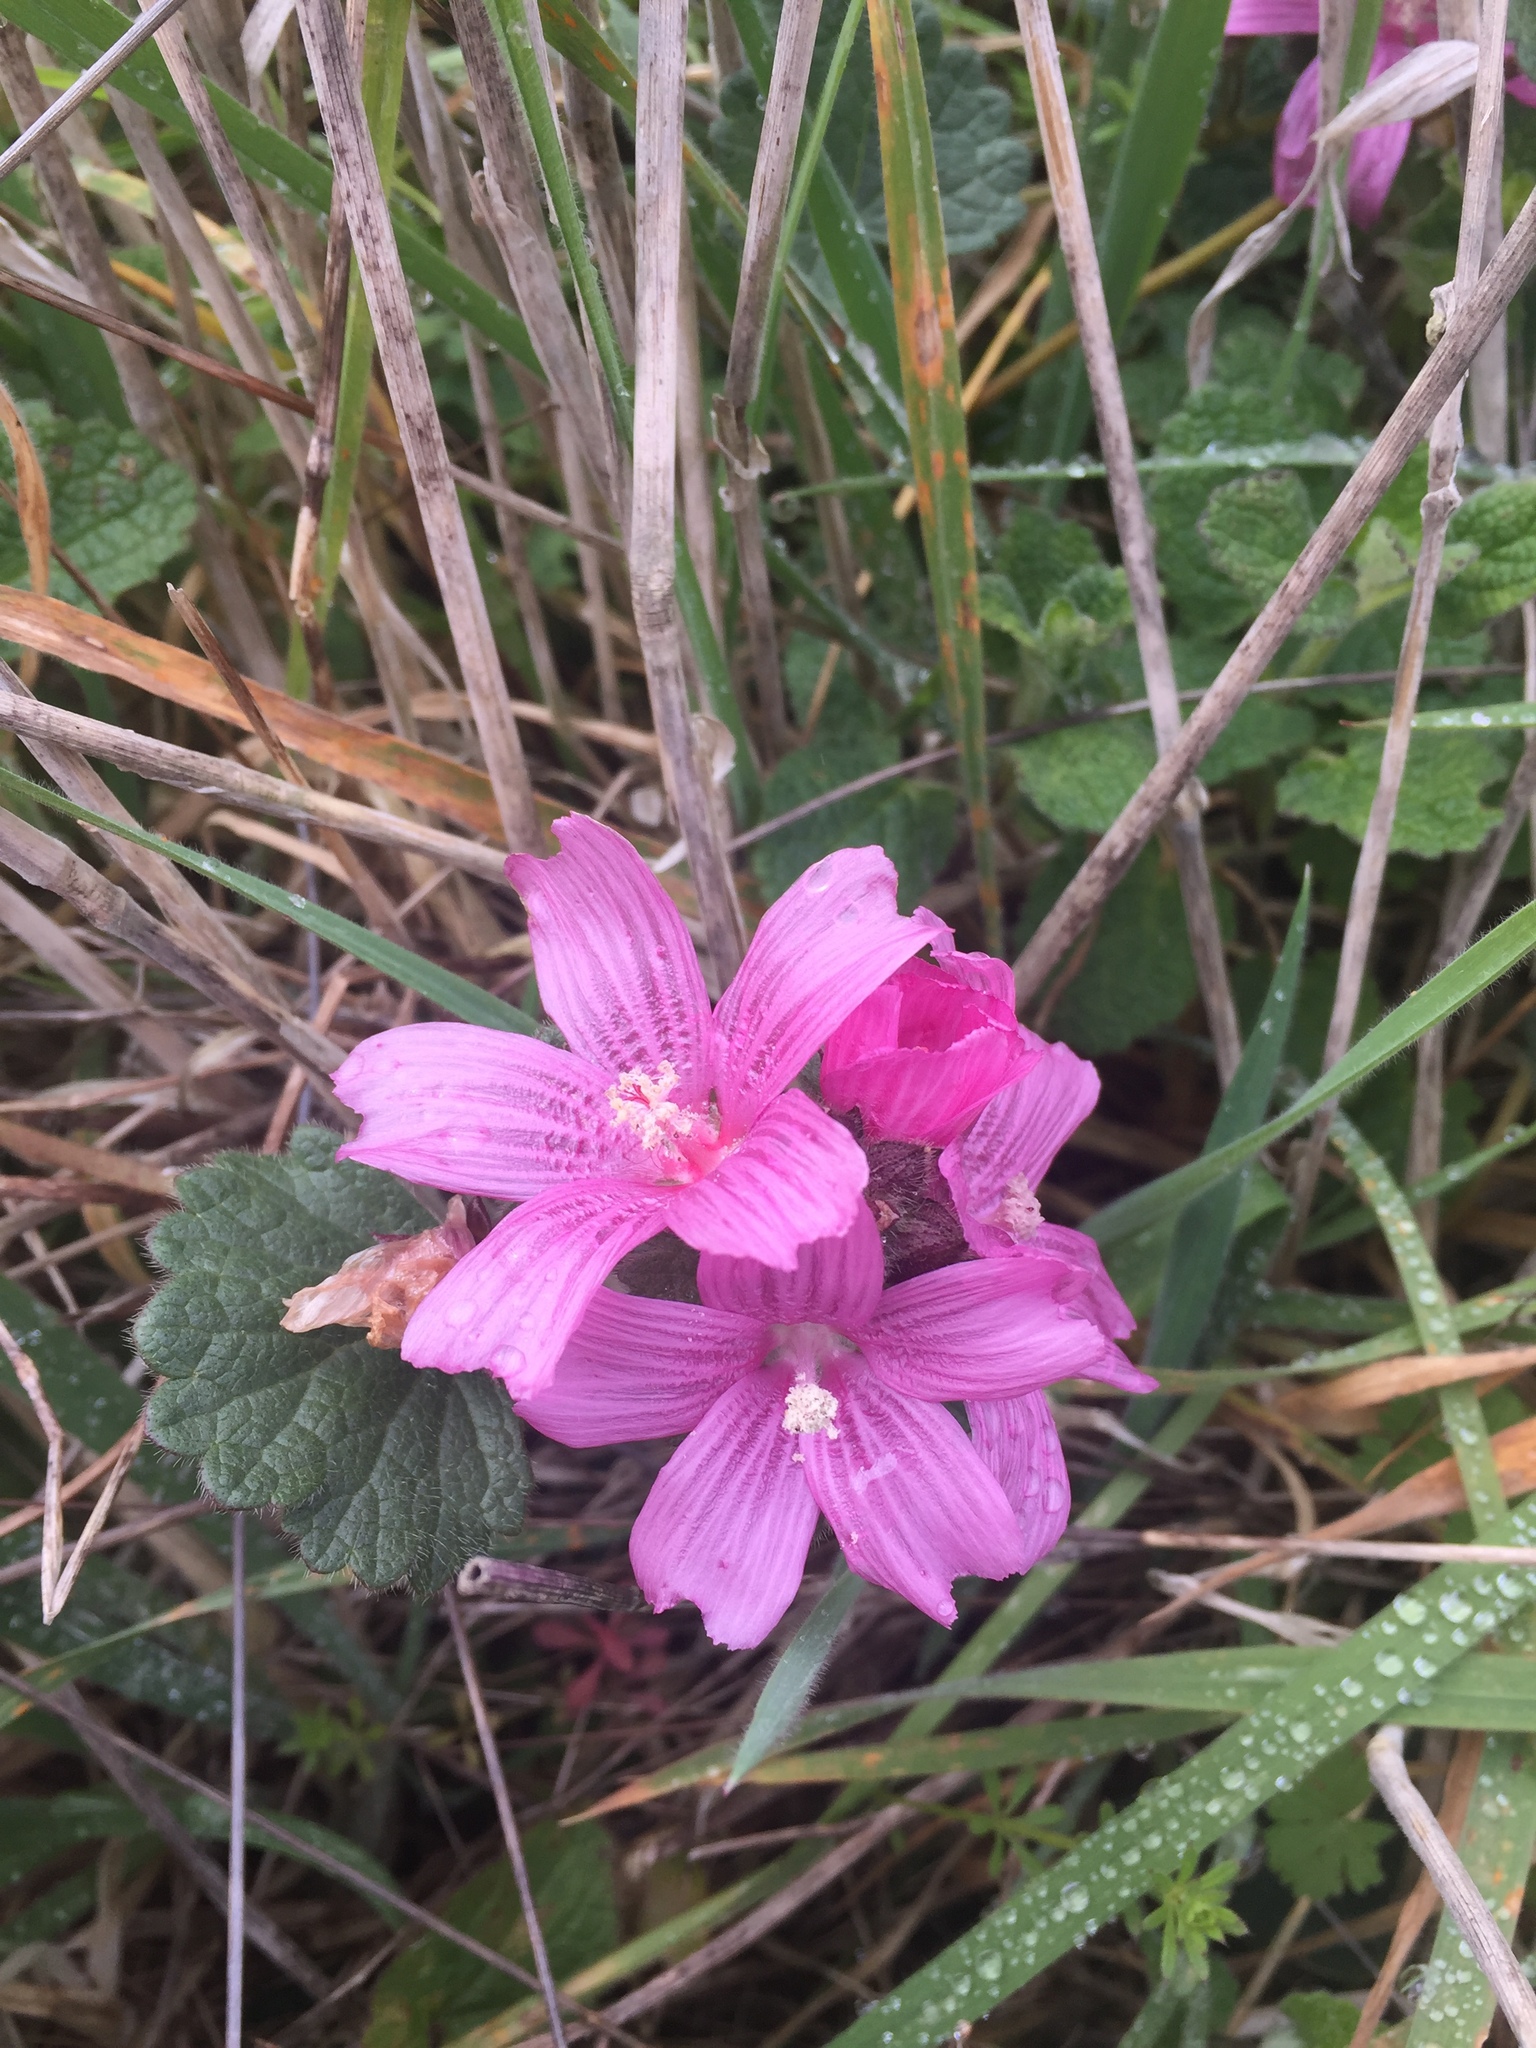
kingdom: Plantae
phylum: Tracheophyta
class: Magnoliopsida
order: Malvales
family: Malvaceae
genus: Sidalcea
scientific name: Sidalcea malviflora
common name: Greek mallow
